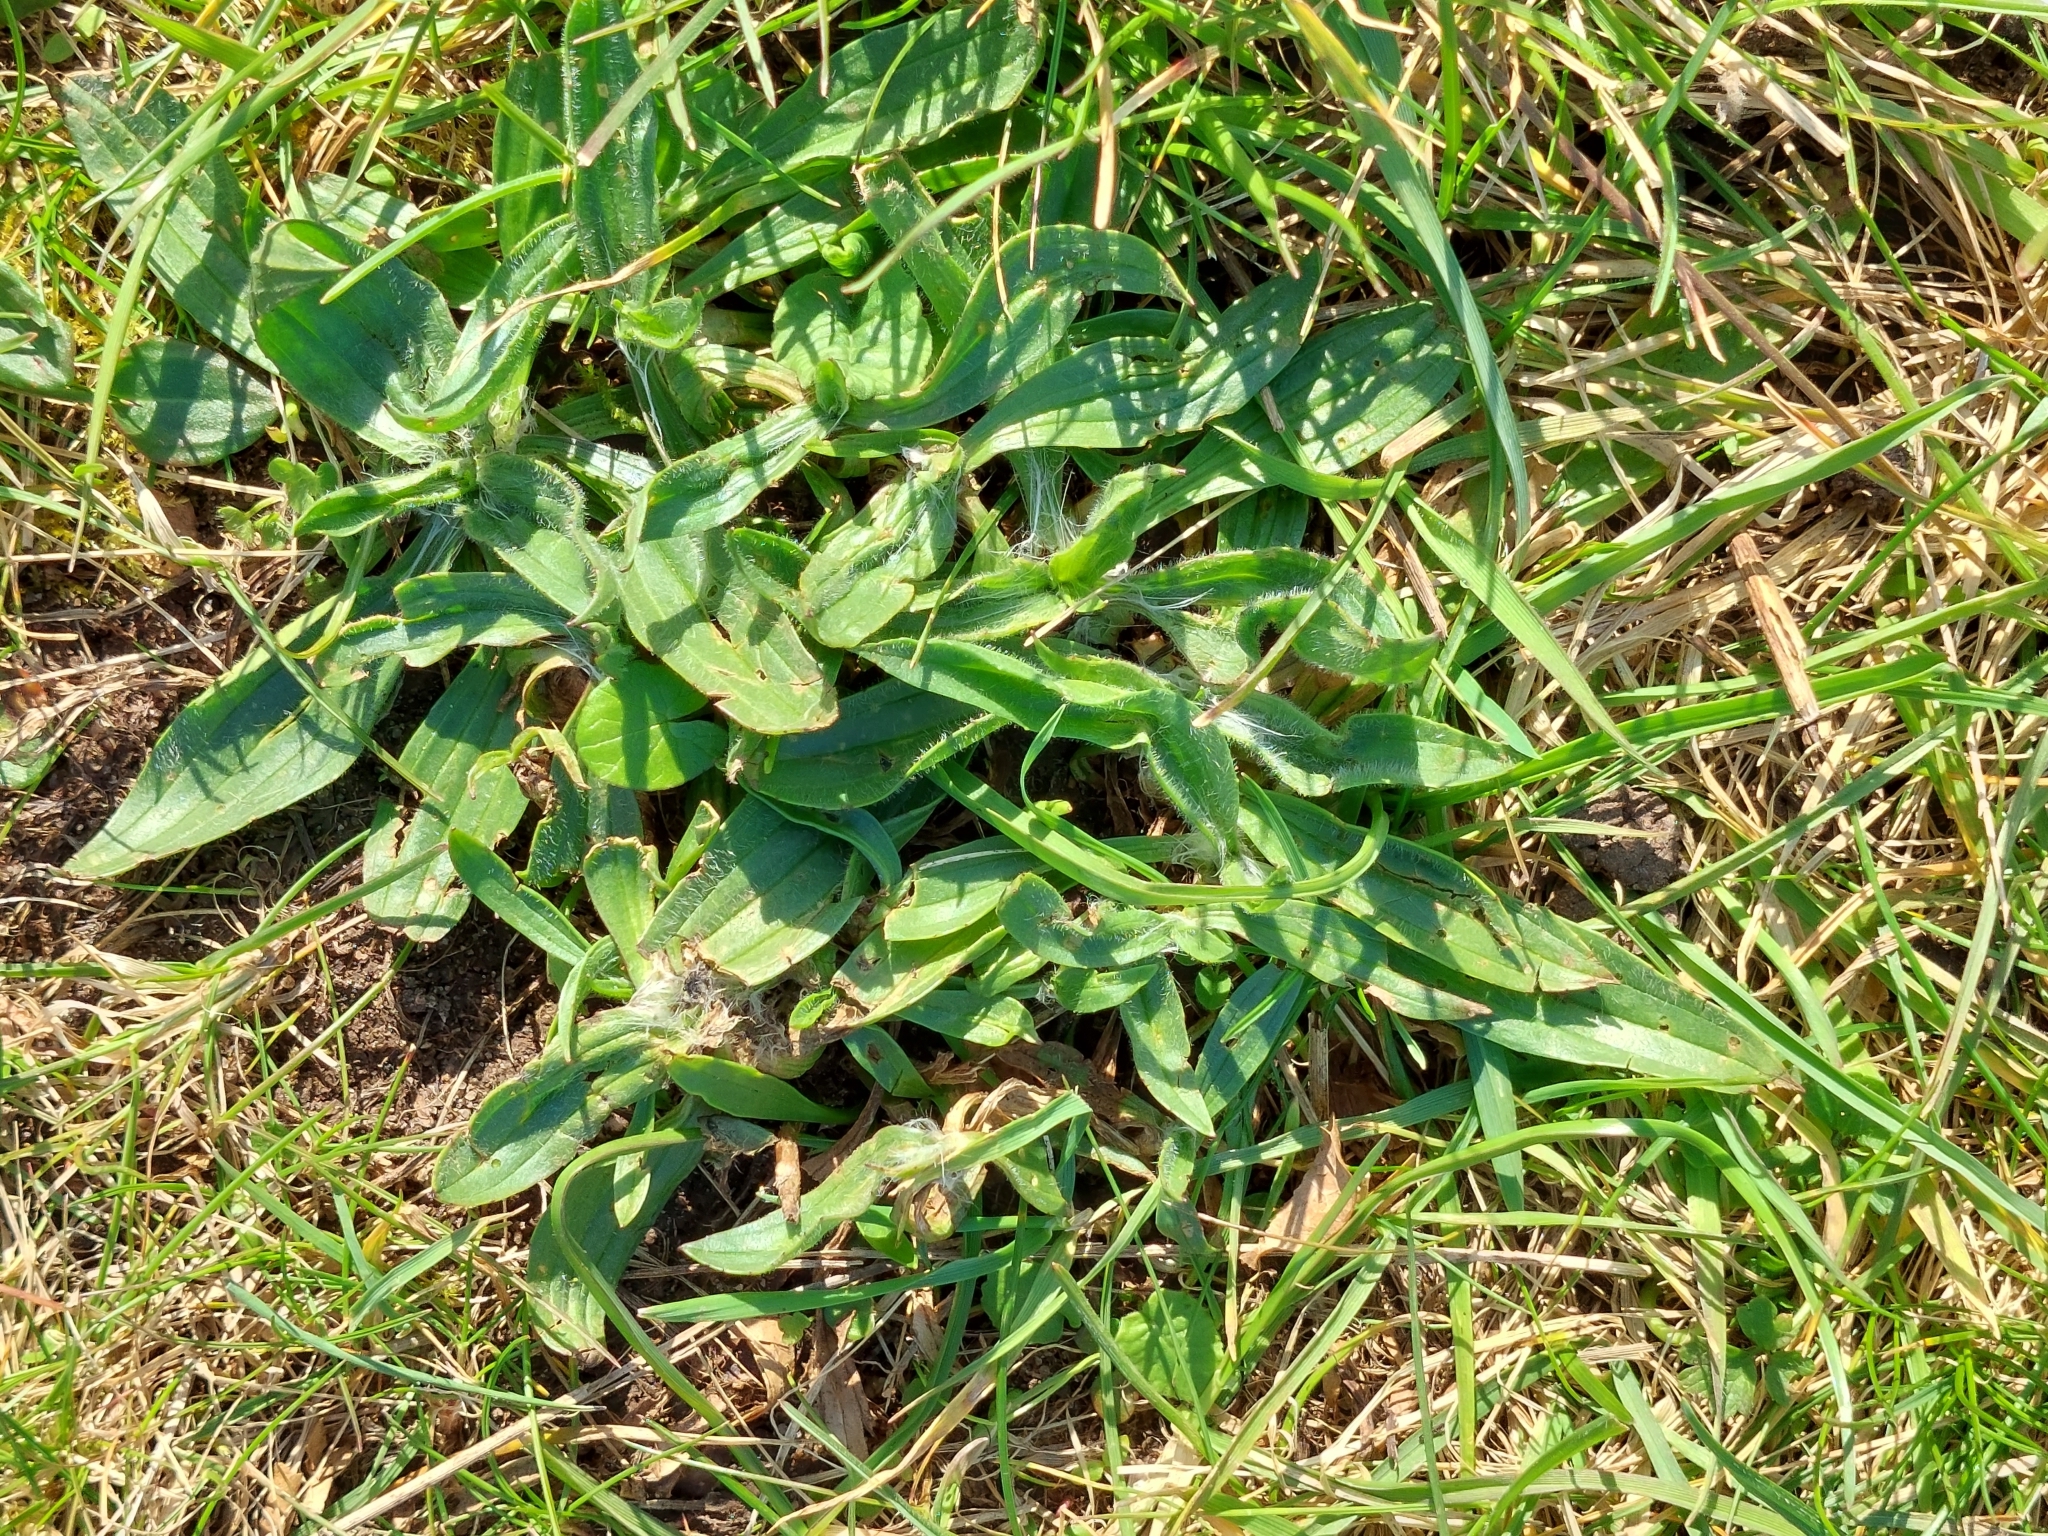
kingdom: Plantae
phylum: Tracheophyta
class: Magnoliopsida
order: Lamiales
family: Plantaginaceae
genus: Plantago
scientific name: Plantago lanceolata
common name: Ribwort plantain
